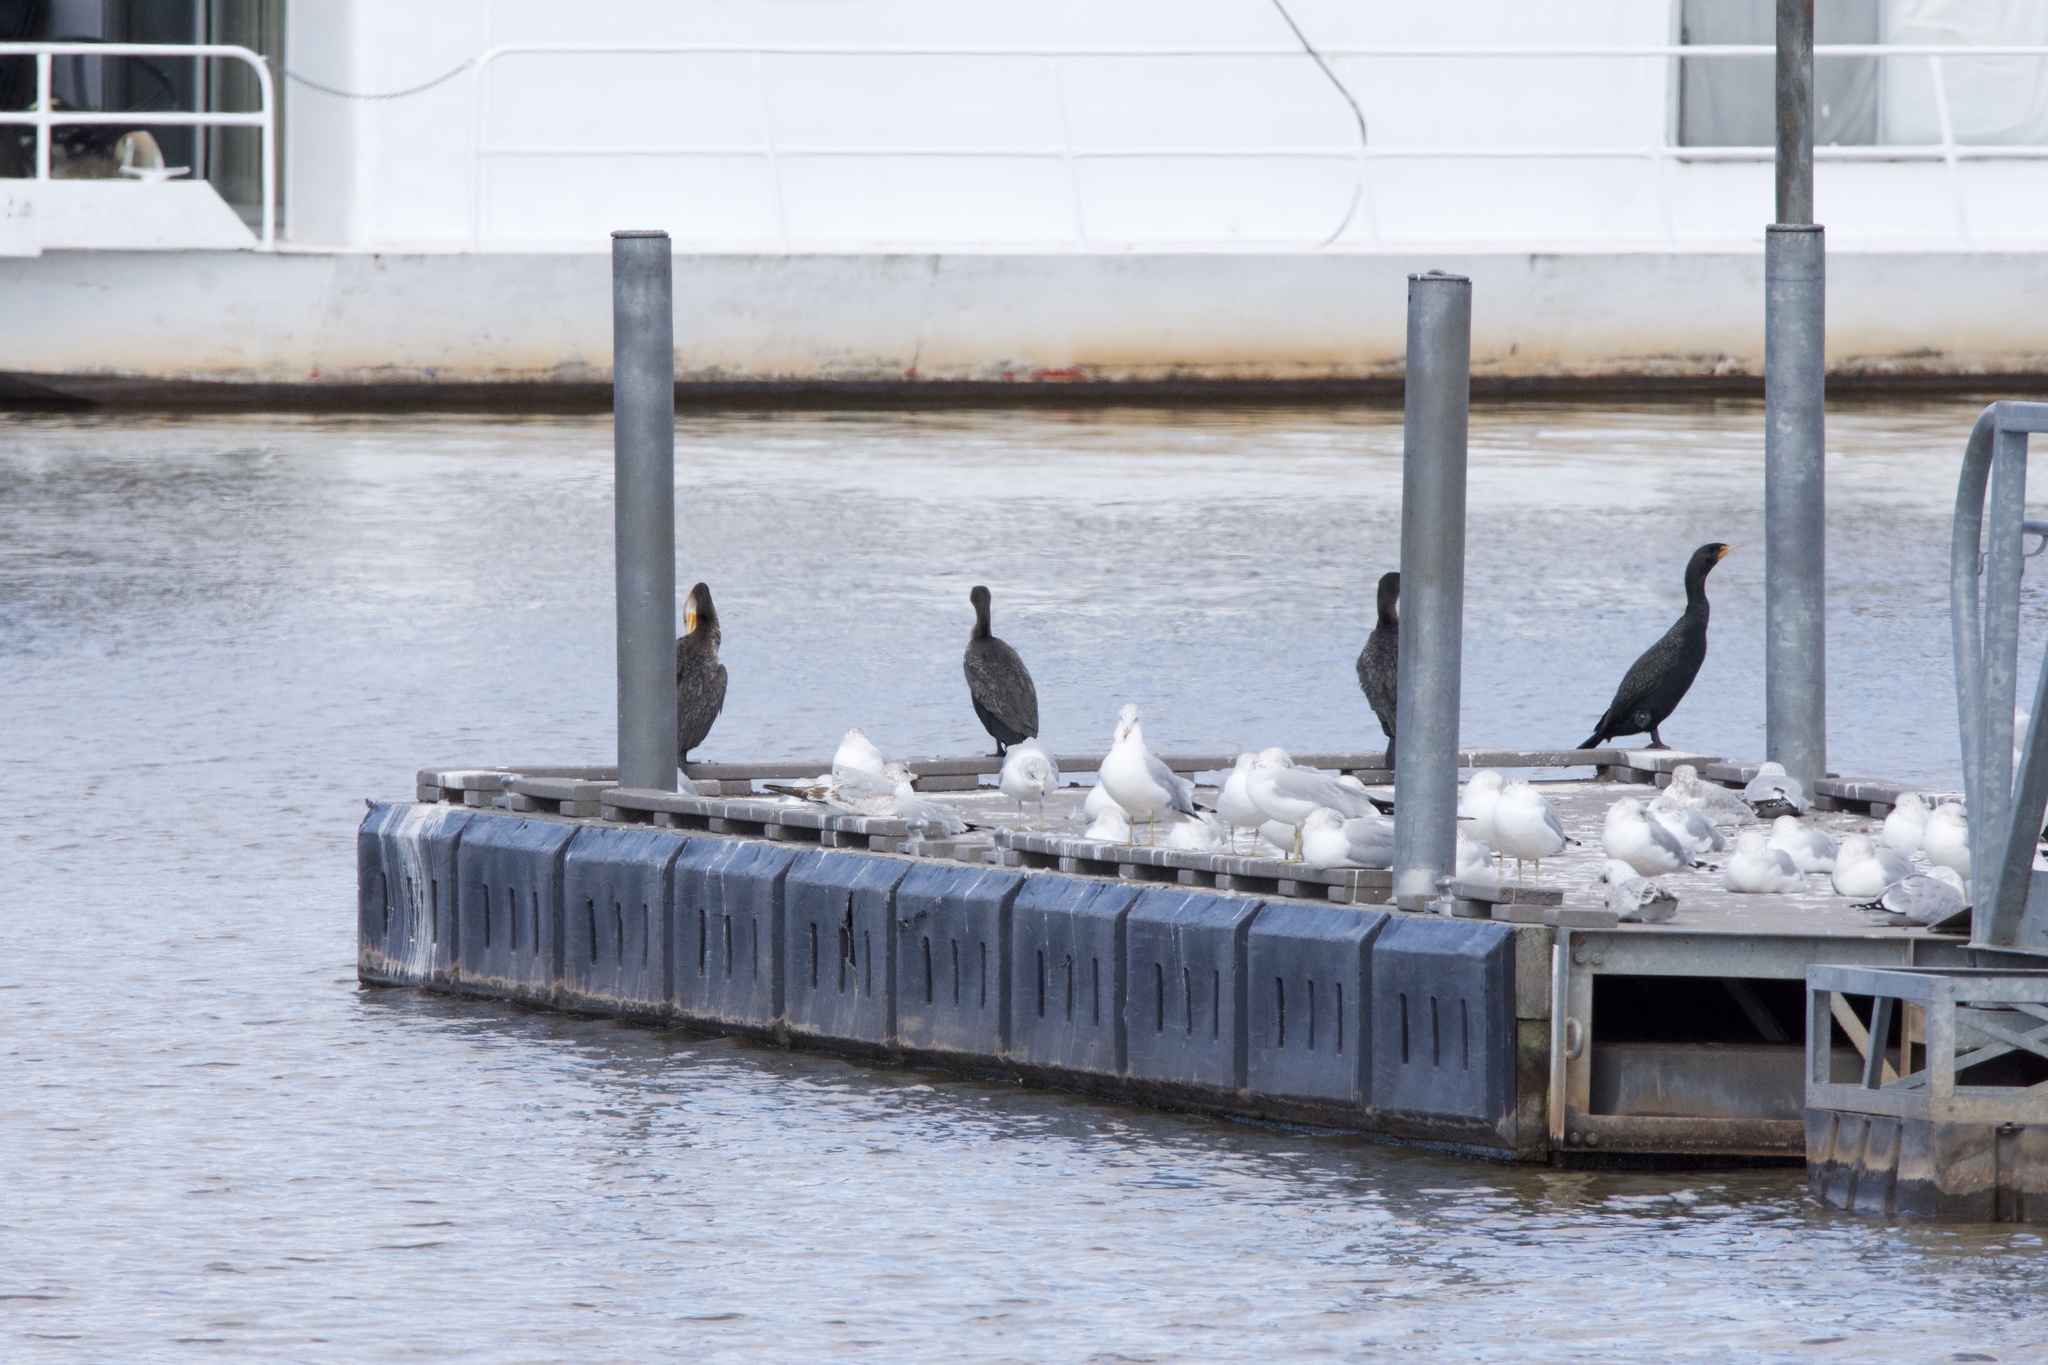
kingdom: Animalia
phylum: Chordata
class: Aves
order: Suliformes
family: Phalacrocoracidae
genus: Phalacrocorax
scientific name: Phalacrocorax auritus
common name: Double-crested cormorant
